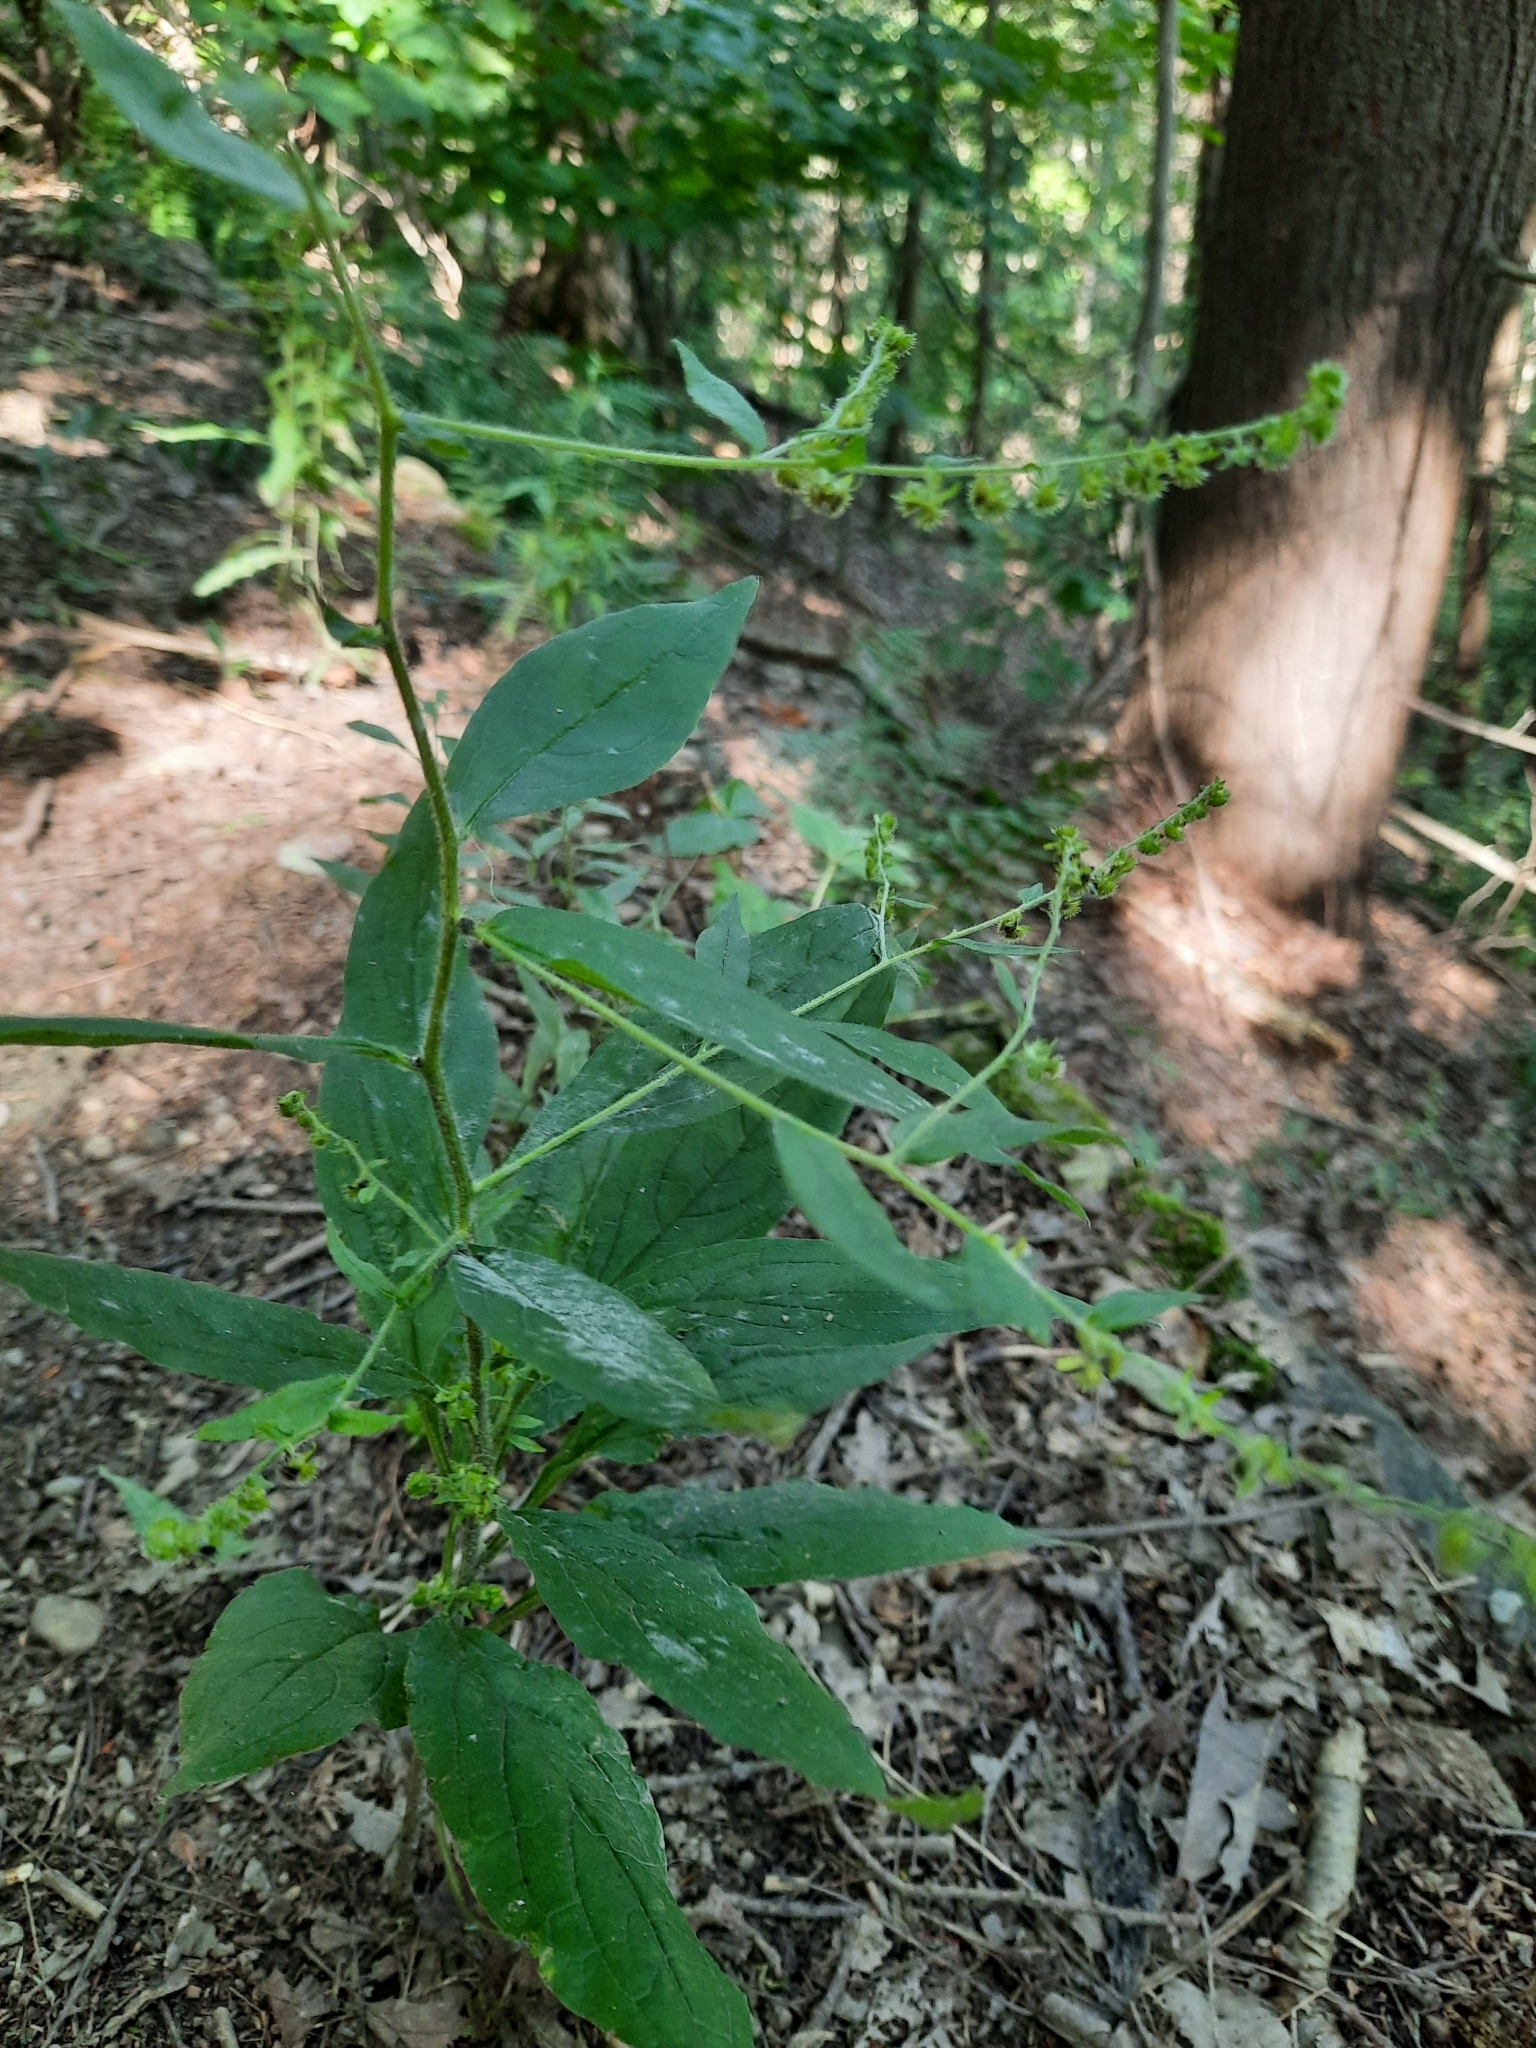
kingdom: Plantae
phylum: Tracheophyta
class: Magnoliopsida
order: Boraginales
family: Boraginaceae
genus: Hackelia
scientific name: Hackelia virginiana
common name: Beggar's-lice
